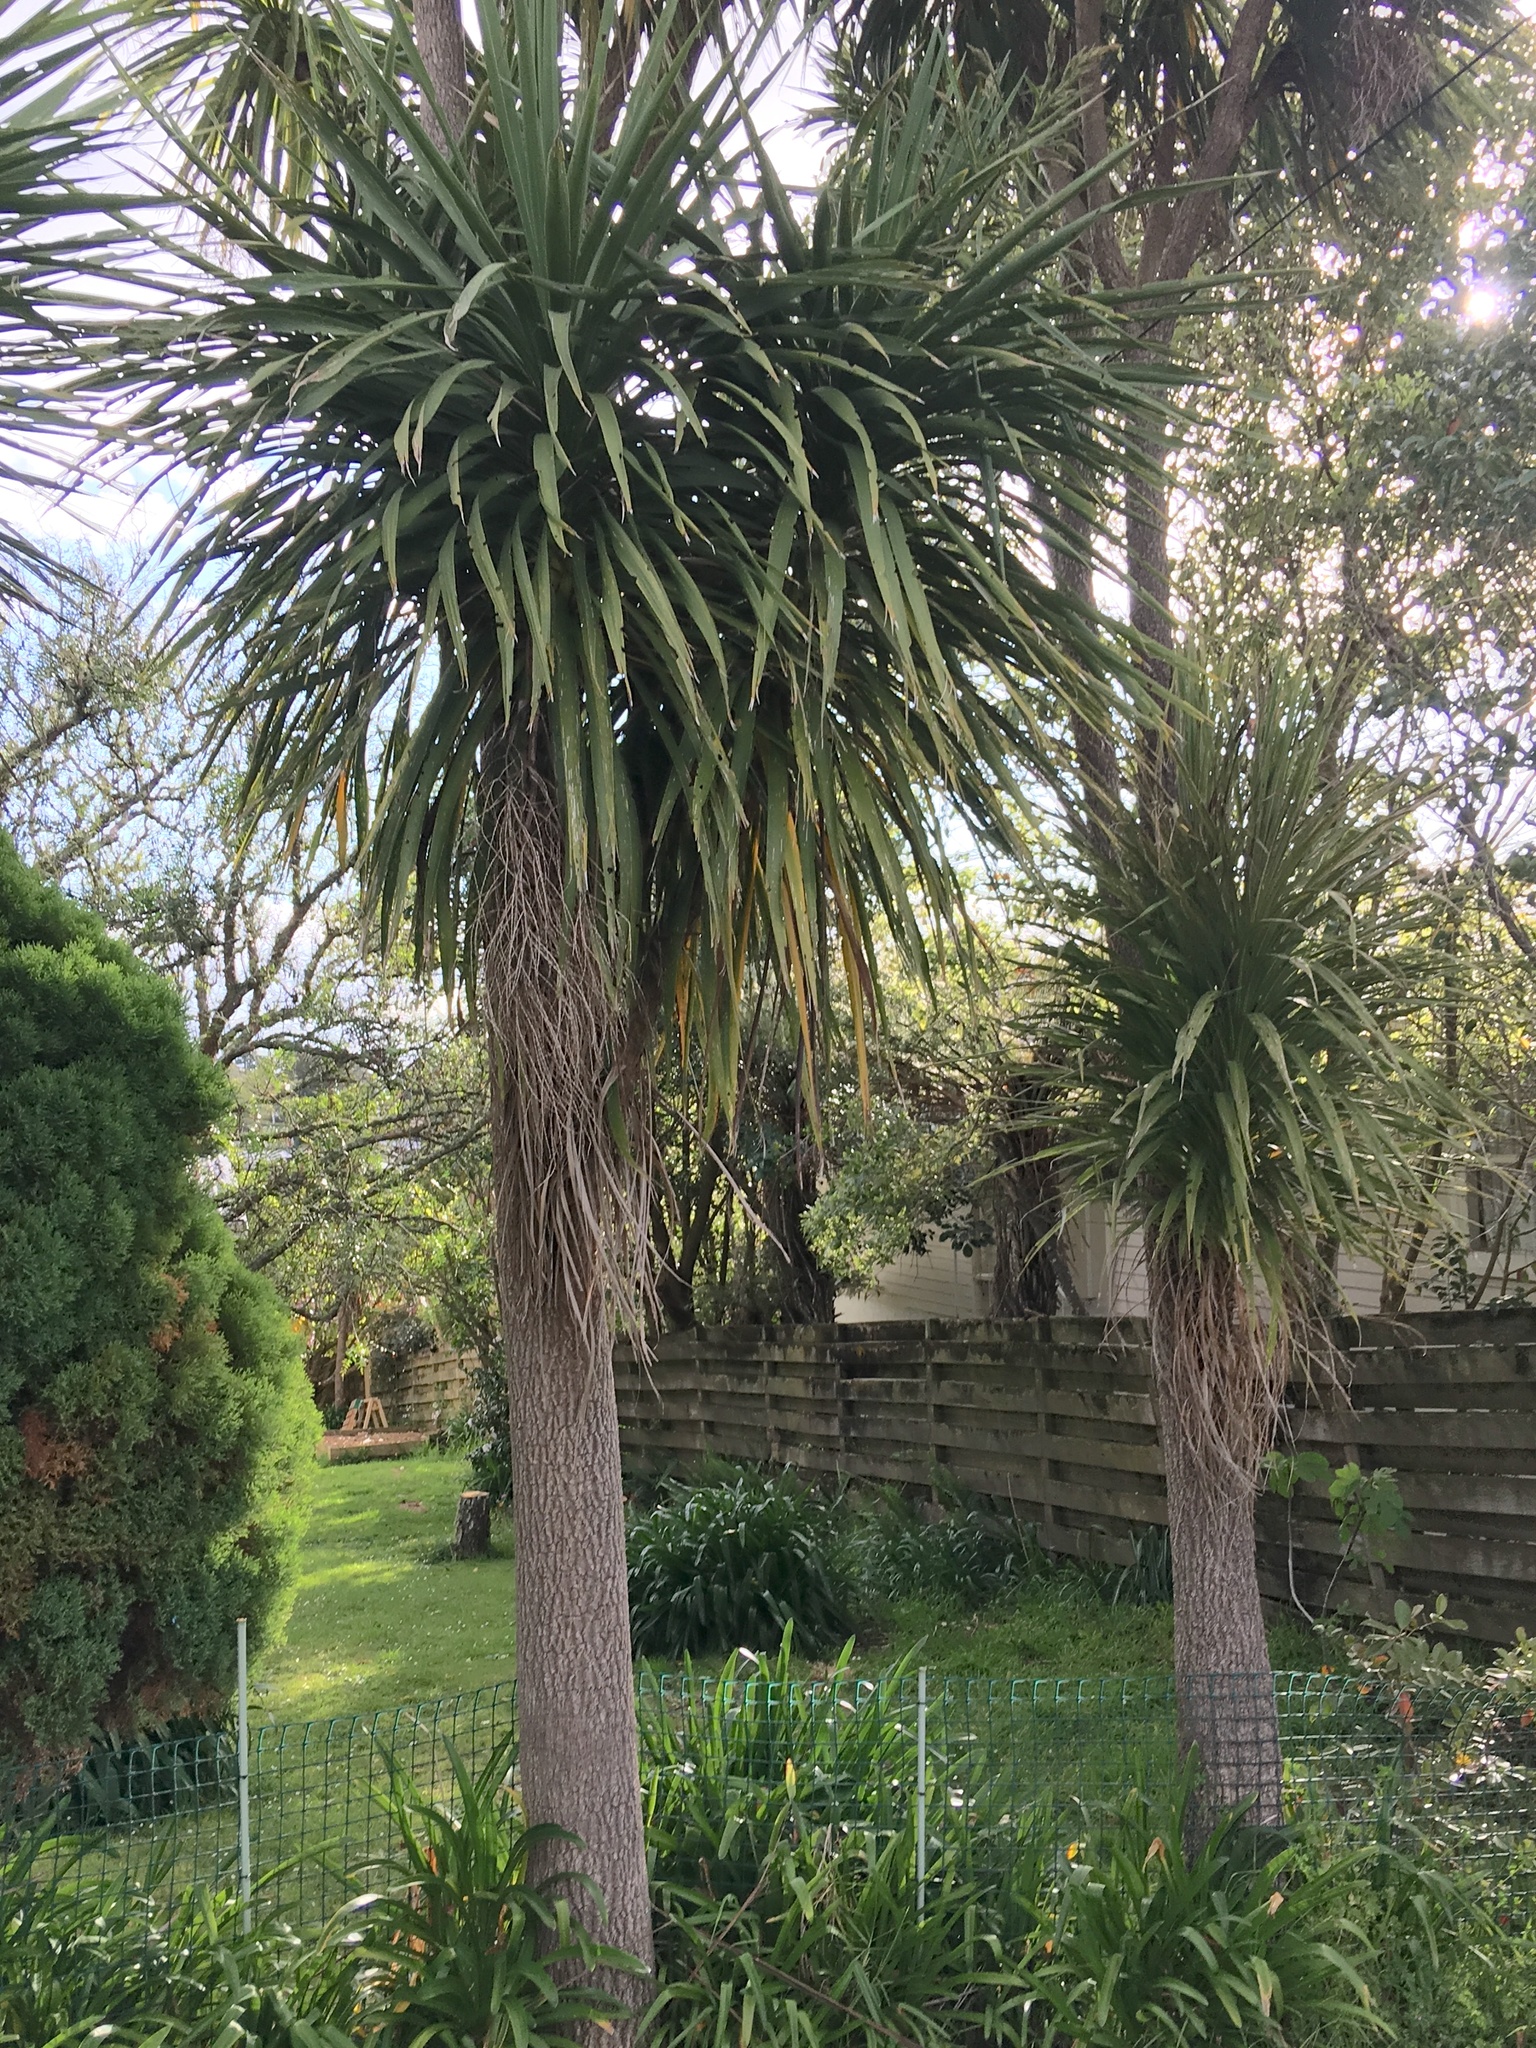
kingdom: Plantae
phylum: Tracheophyta
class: Liliopsida
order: Asparagales
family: Asparagaceae
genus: Cordyline
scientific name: Cordyline australis
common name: Cabbage-palm
